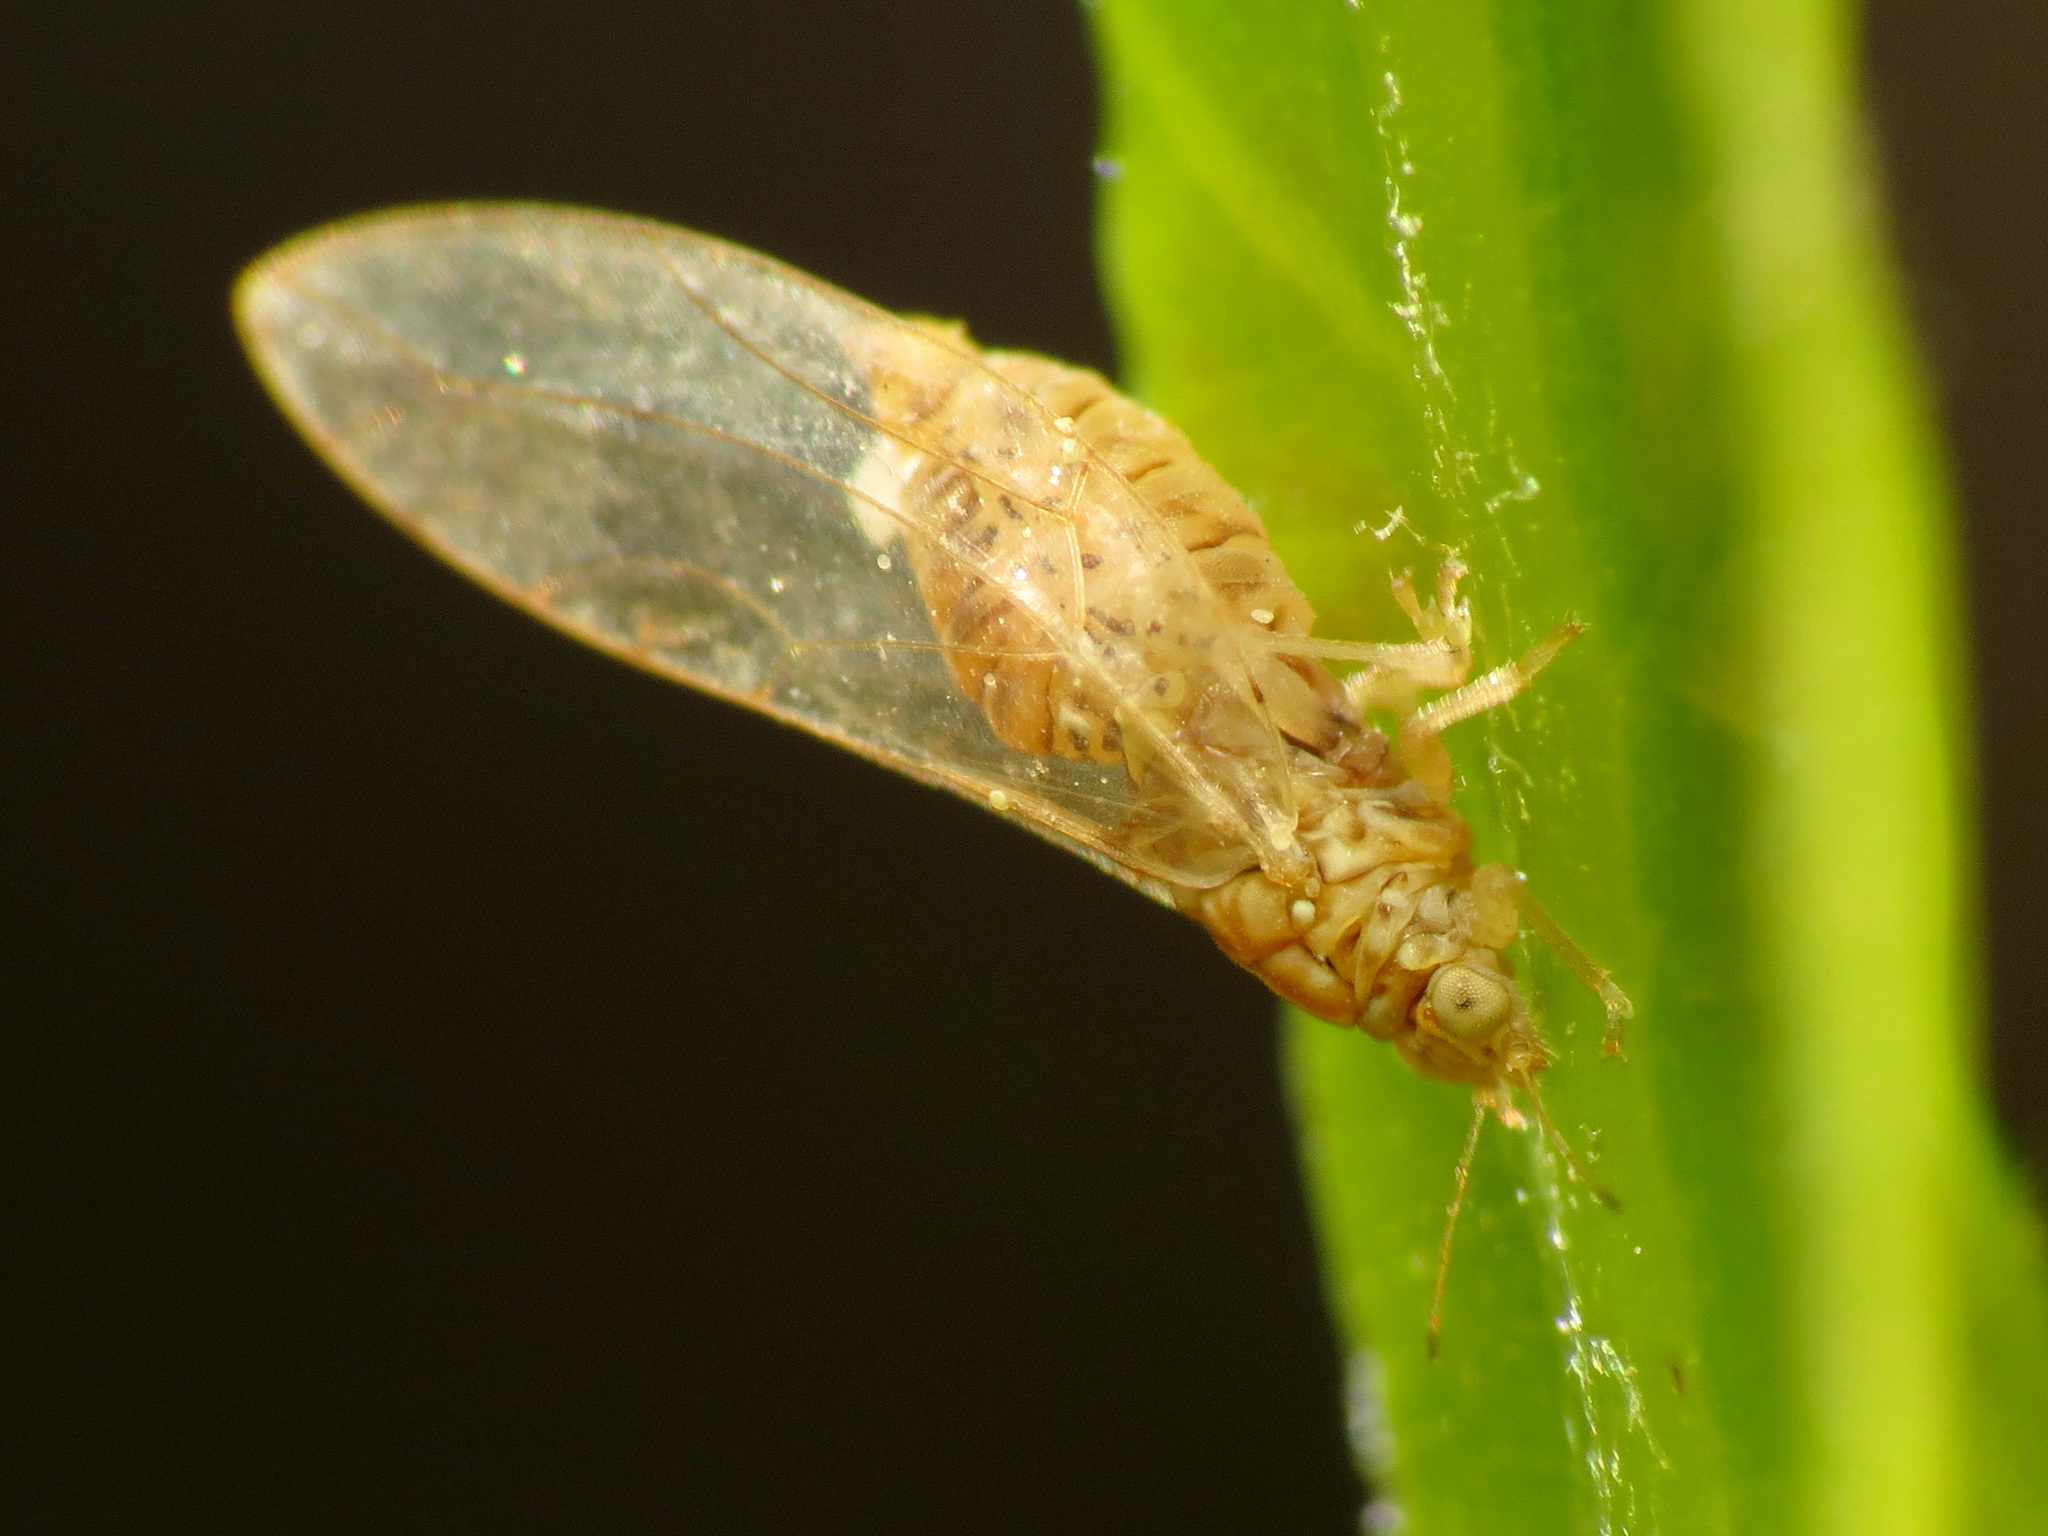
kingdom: Animalia
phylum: Arthropoda
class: Insecta
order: Hemiptera
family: Triozidae
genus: Lauritrioza
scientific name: Lauritrioza alacris
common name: Laurel psyllid
